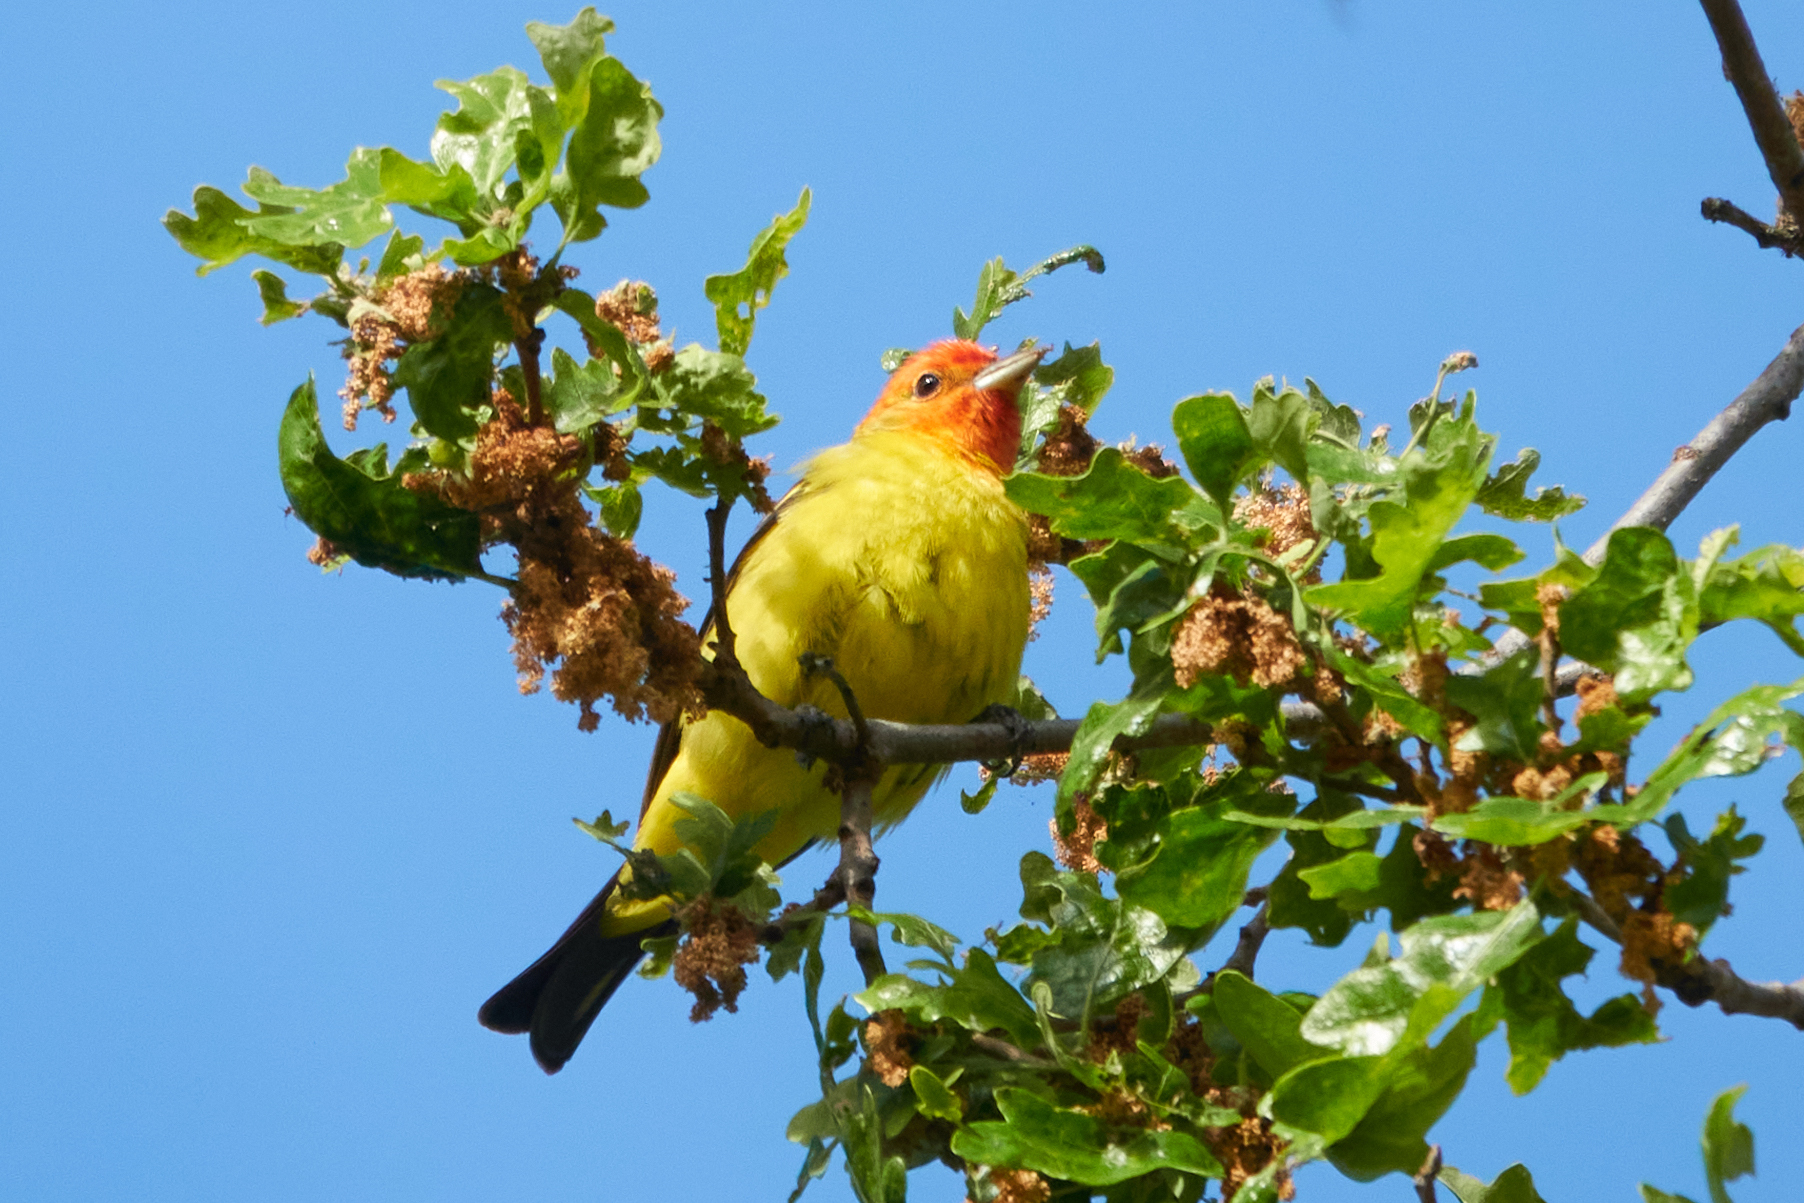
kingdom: Animalia
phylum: Chordata
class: Aves
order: Passeriformes
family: Cardinalidae
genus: Piranga
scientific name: Piranga ludoviciana
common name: Western tanager
